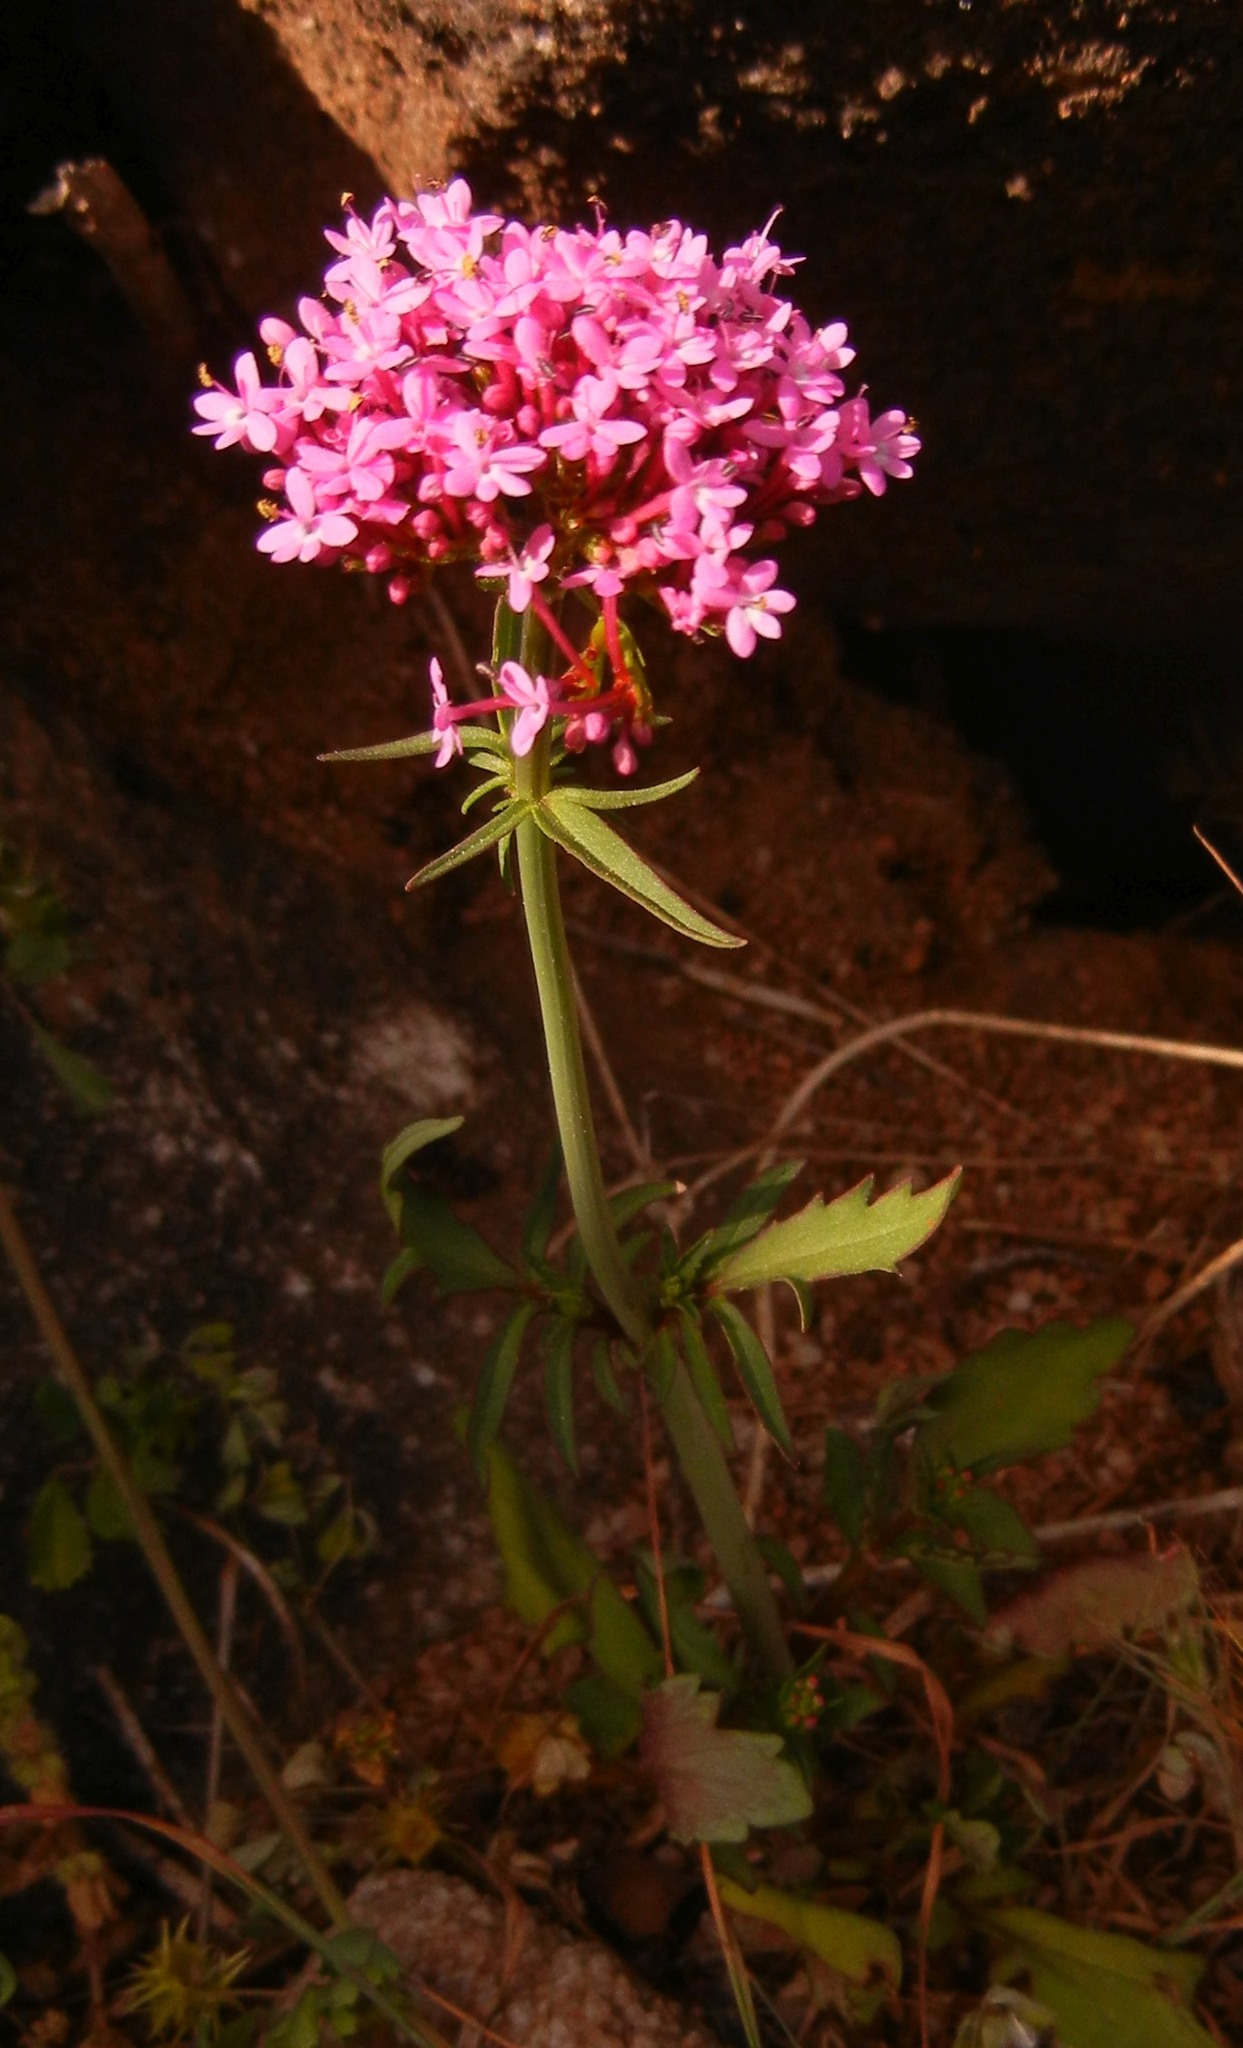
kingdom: Plantae
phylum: Tracheophyta
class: Magnoliopsida
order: Dipsacales
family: Caprifoliaceae
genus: Centranthus
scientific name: Centranthus macrosiphon
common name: Spanish-valerian
